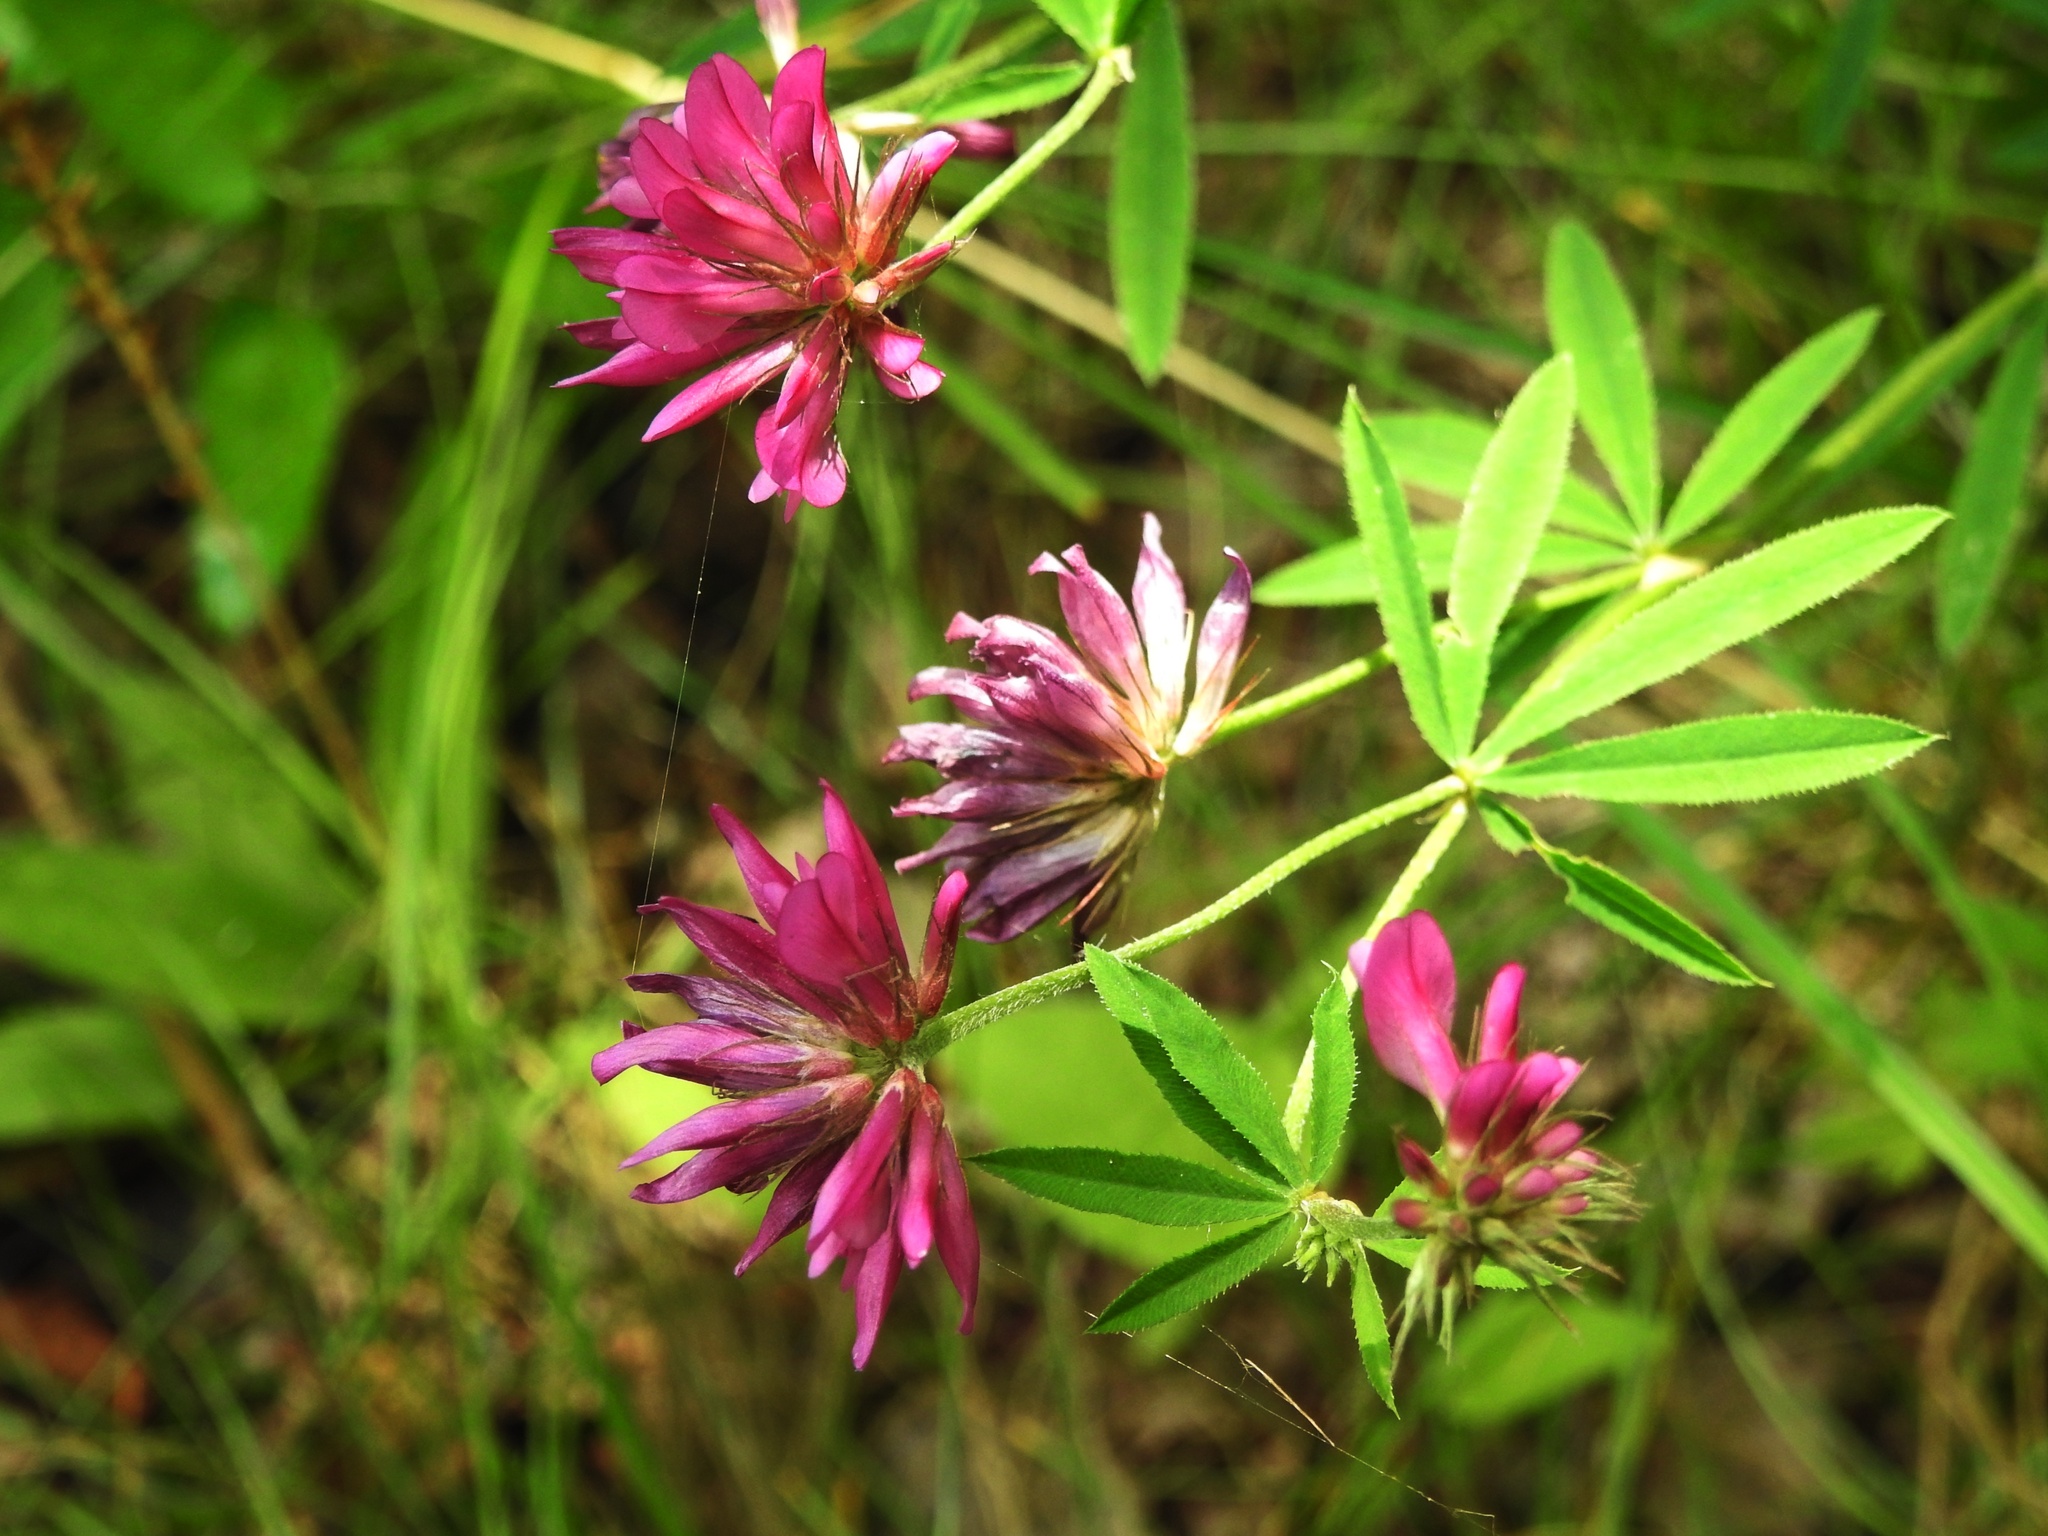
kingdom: Plantae
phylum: Tracheophyta
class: Magnoliopsida
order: Fabales
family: Fabaceae
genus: Trifolium
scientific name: Trifolium lupinaster
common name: Lupine clover
